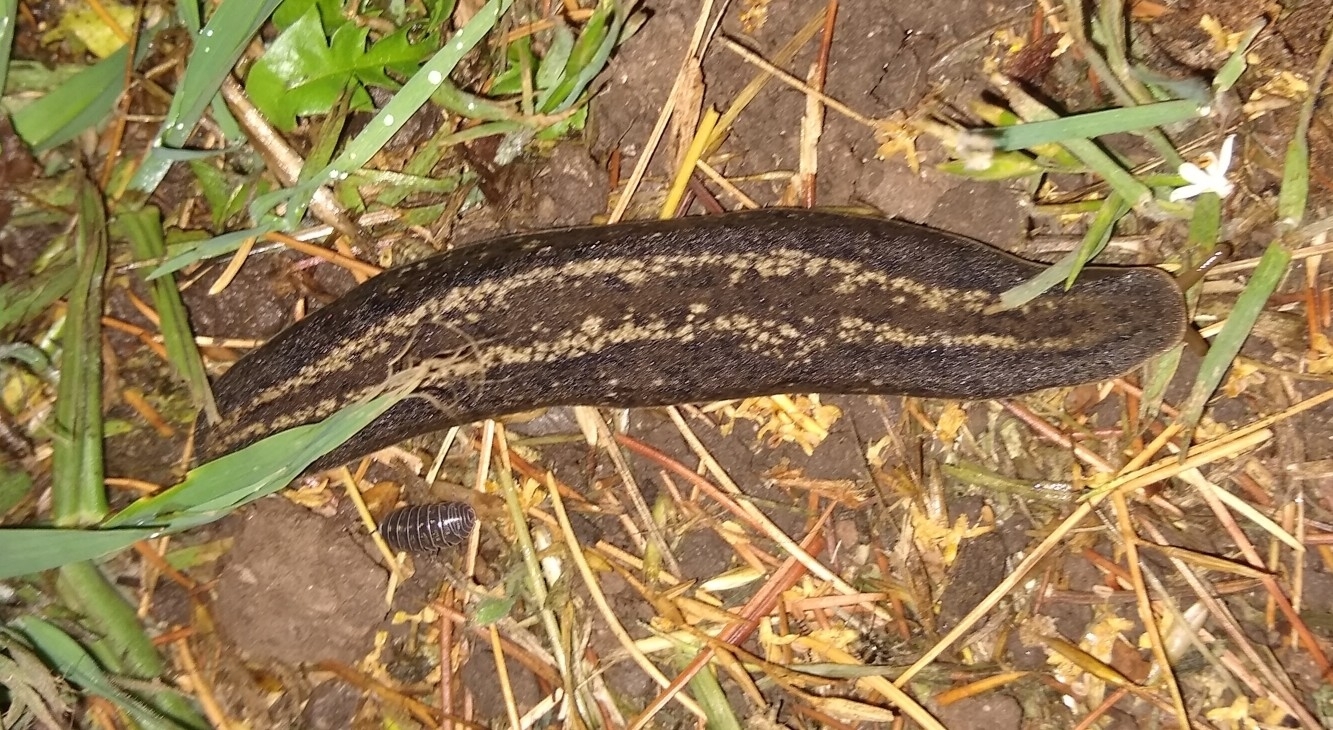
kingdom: Animalia
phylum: Mollusca
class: Gastropoda
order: Systellommatophora
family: Veronicellidae
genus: Phyllocaulis
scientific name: Phyllocaulis soleiformis
